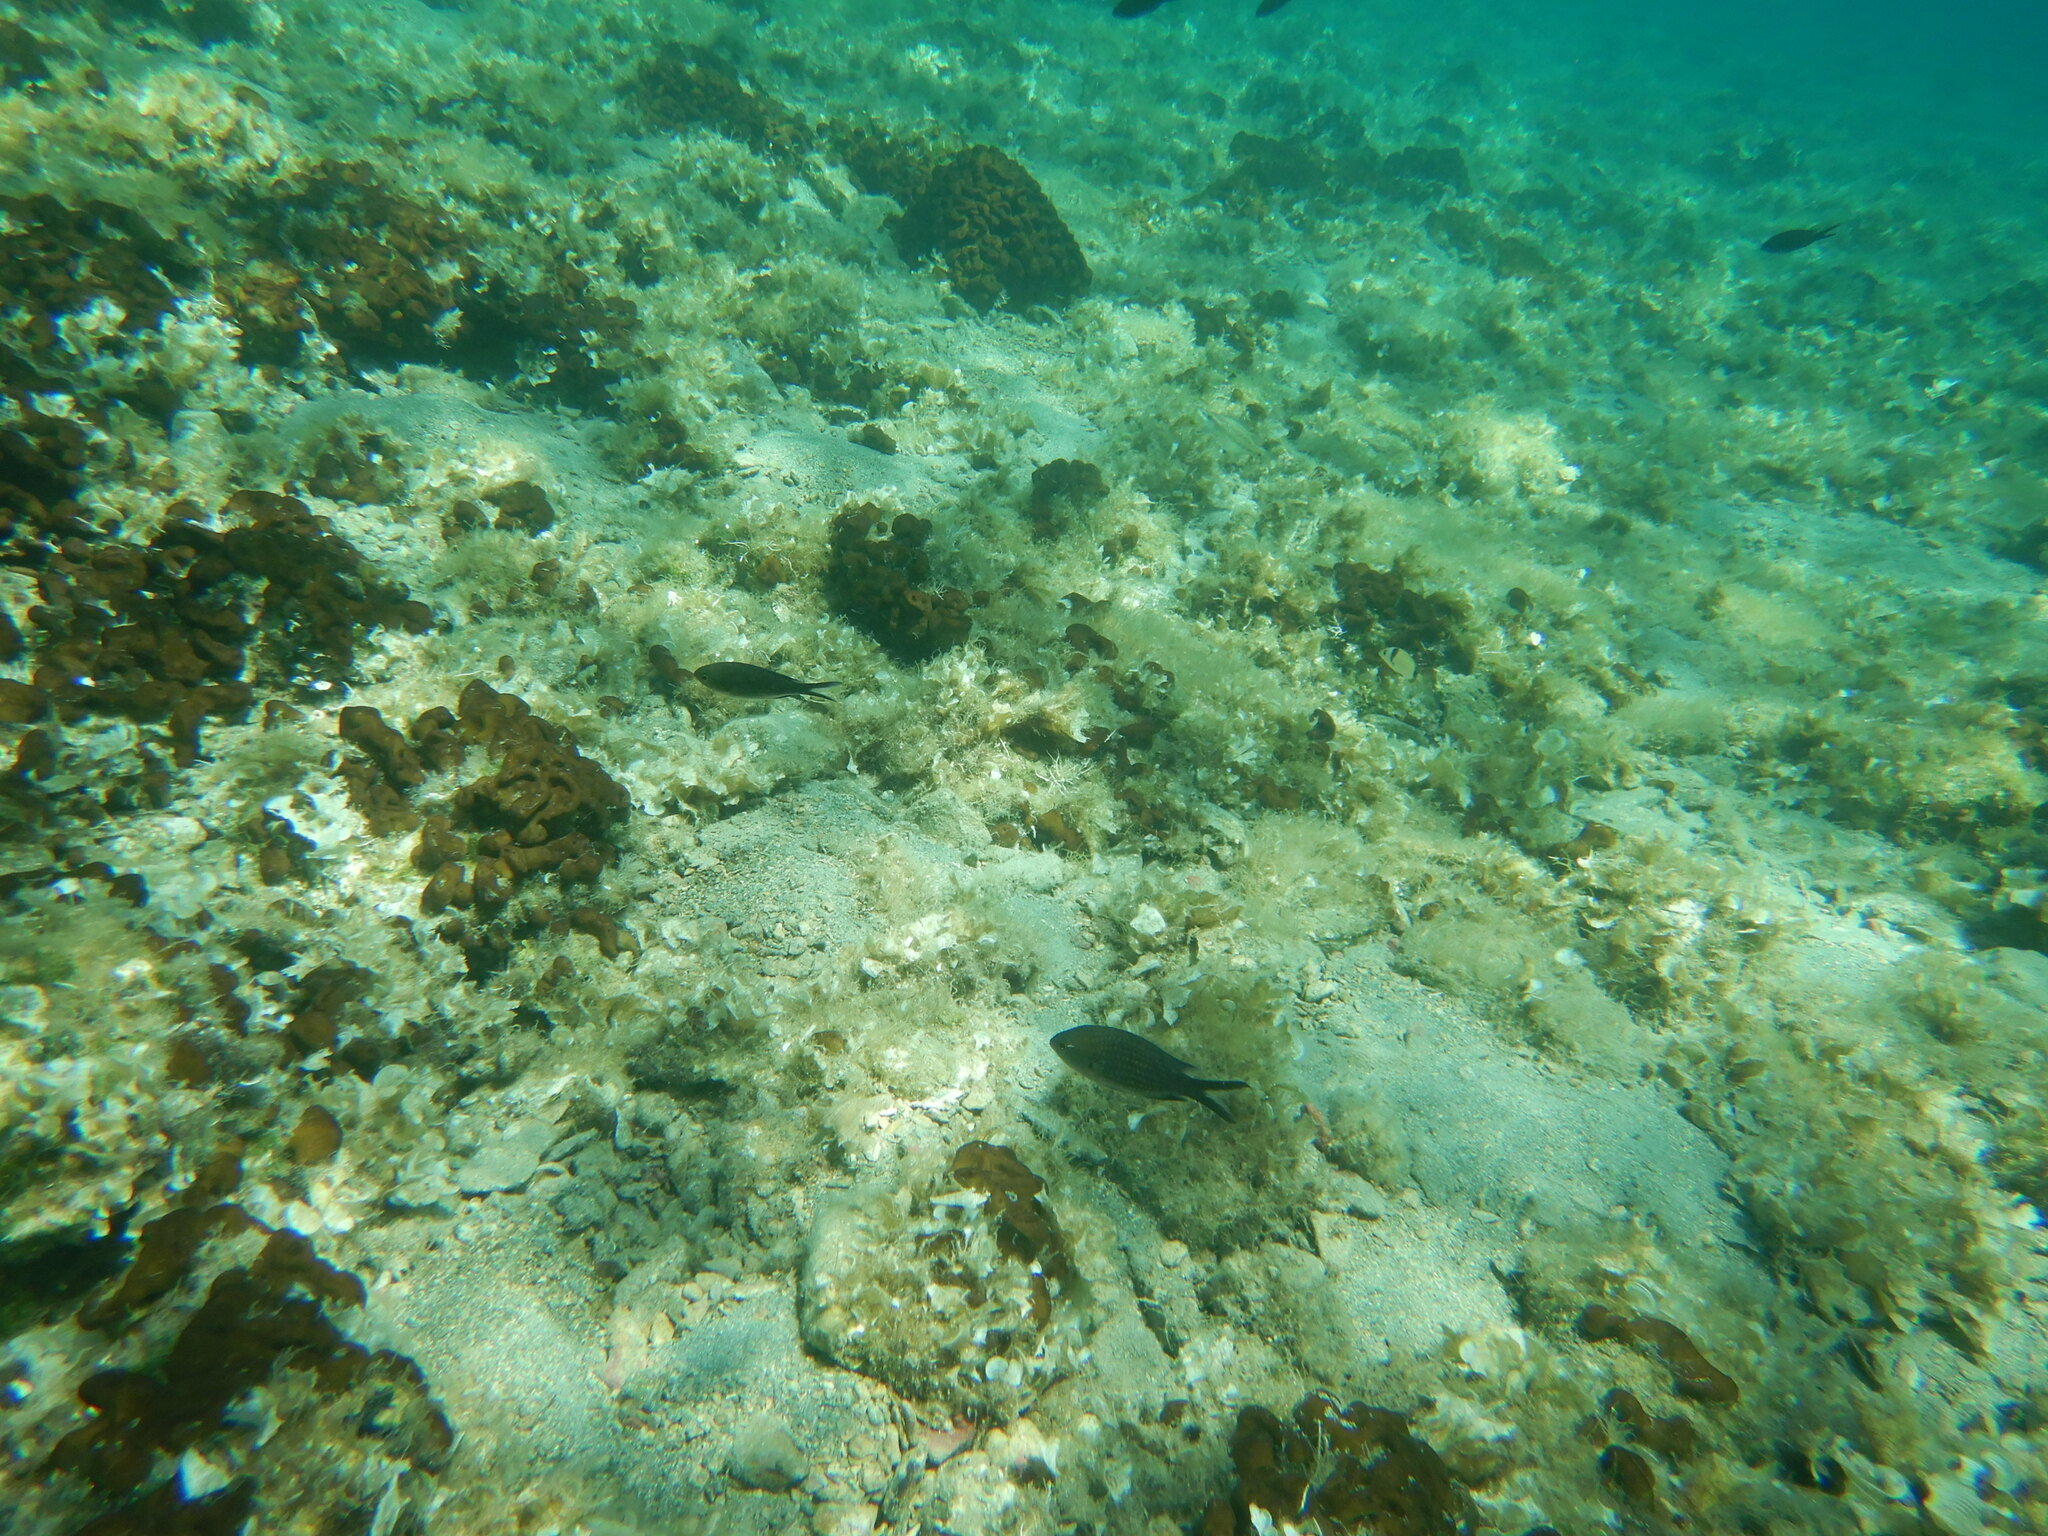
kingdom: Animalia
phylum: Chordata
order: Perciformes
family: Pomacentridae
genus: Chromis
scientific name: Chromis chromis
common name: Damselfish
